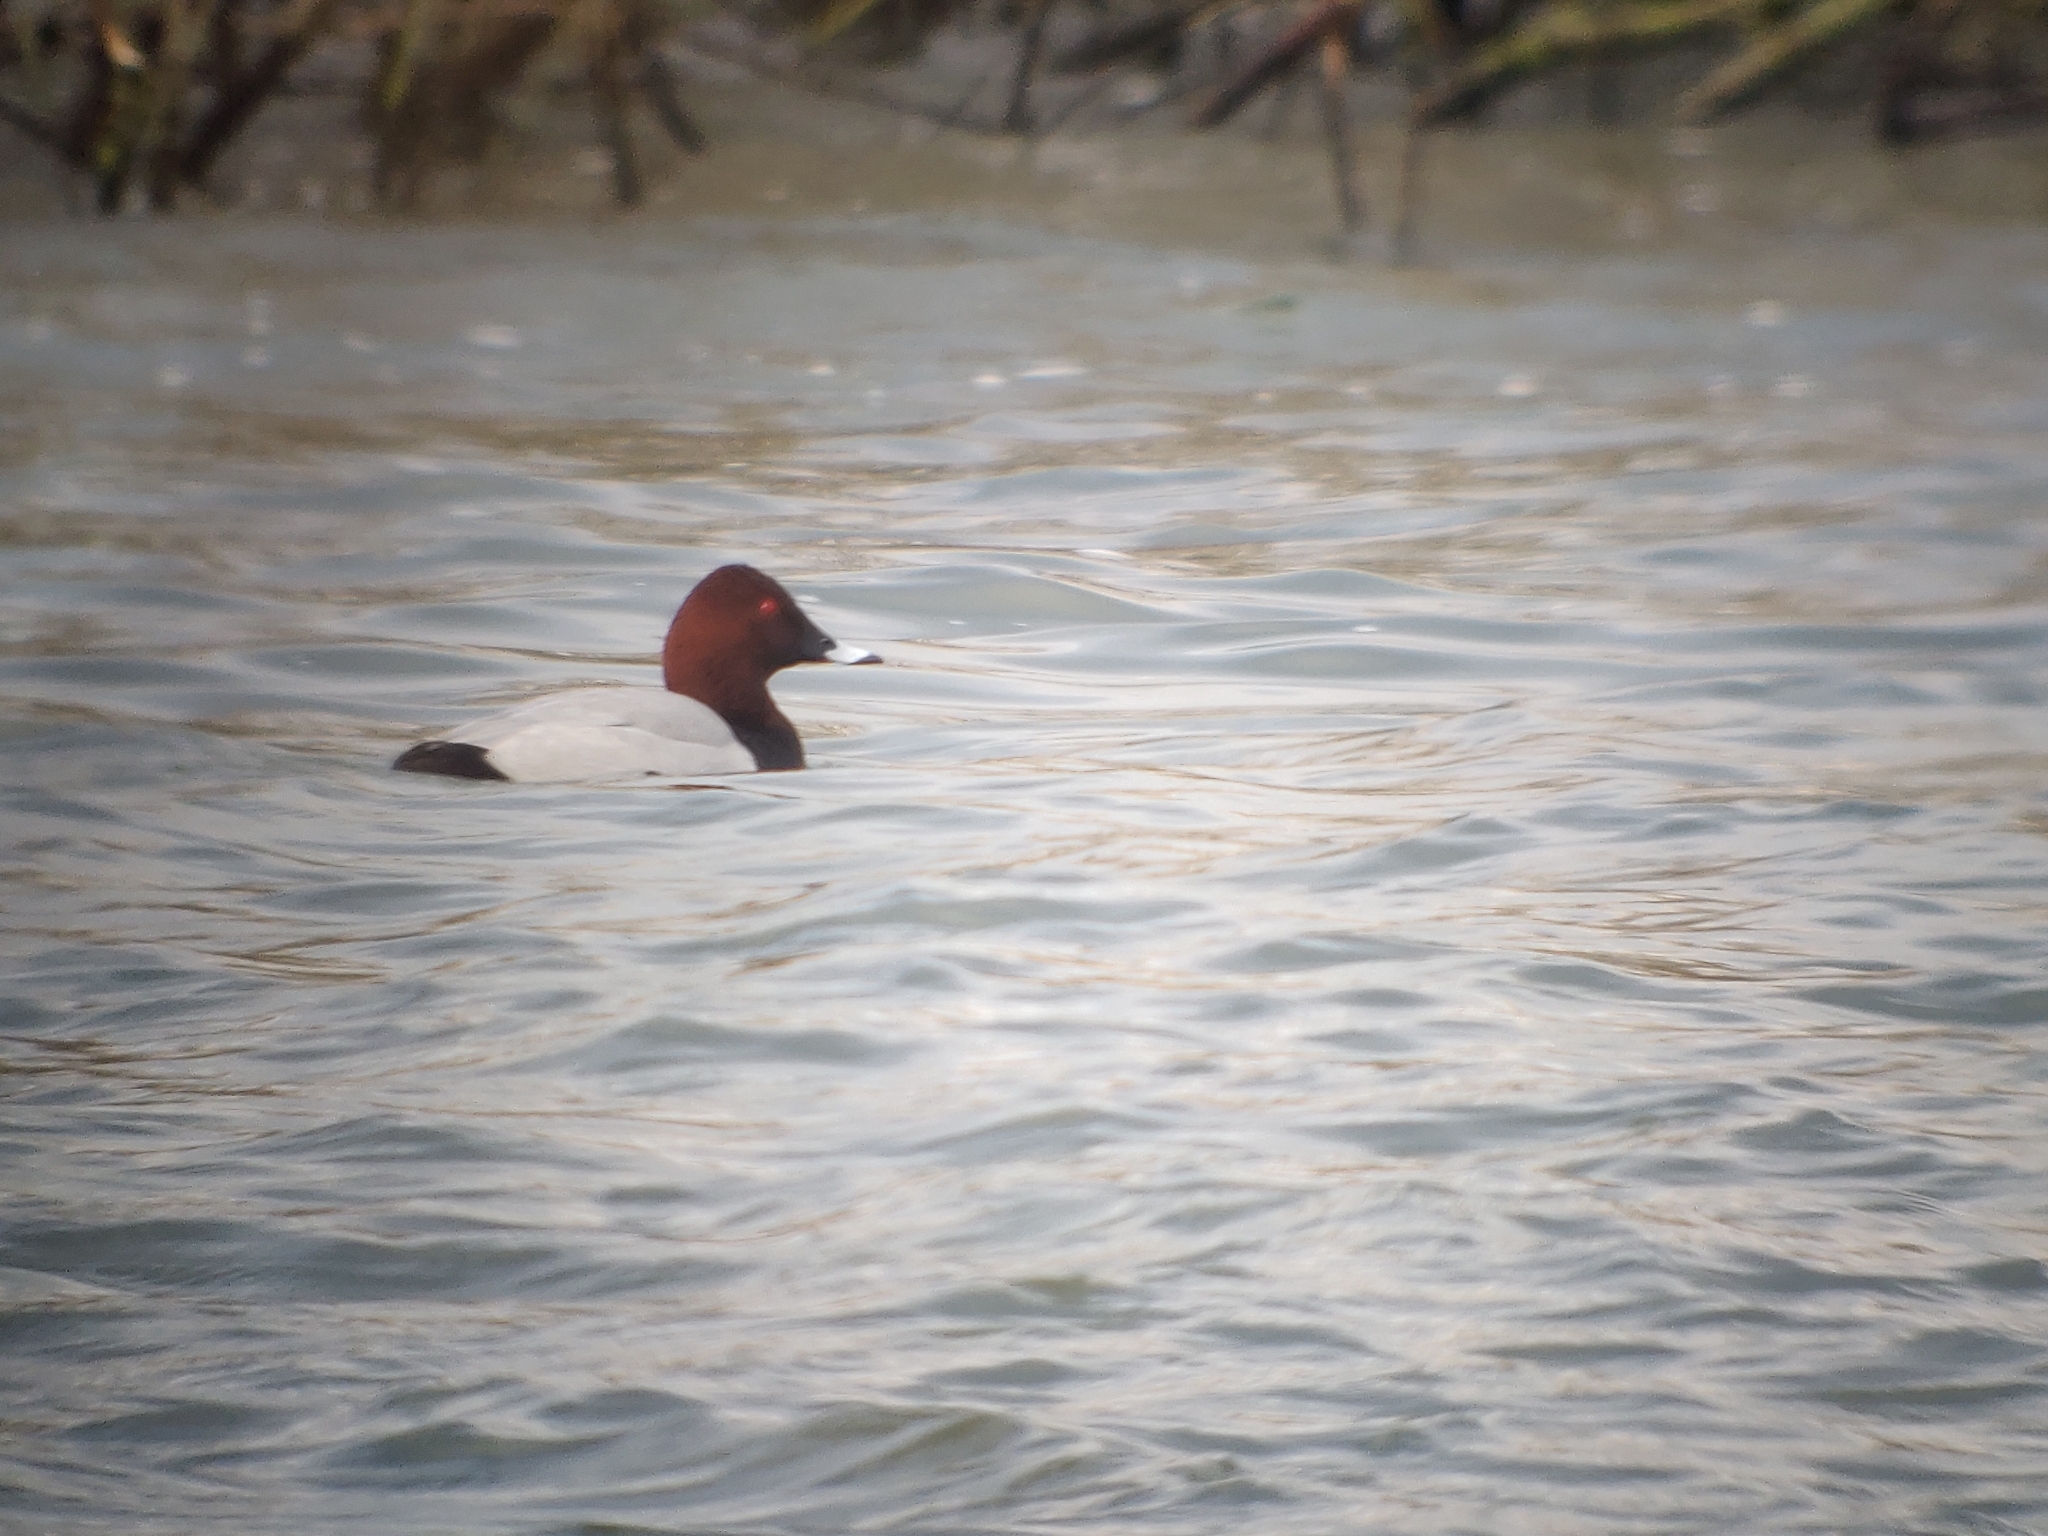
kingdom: Animalia
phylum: Chordata
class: Aves
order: Anseriformes
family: Anatidae
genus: Aythya
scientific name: Aythya ferina
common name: Common pochard
